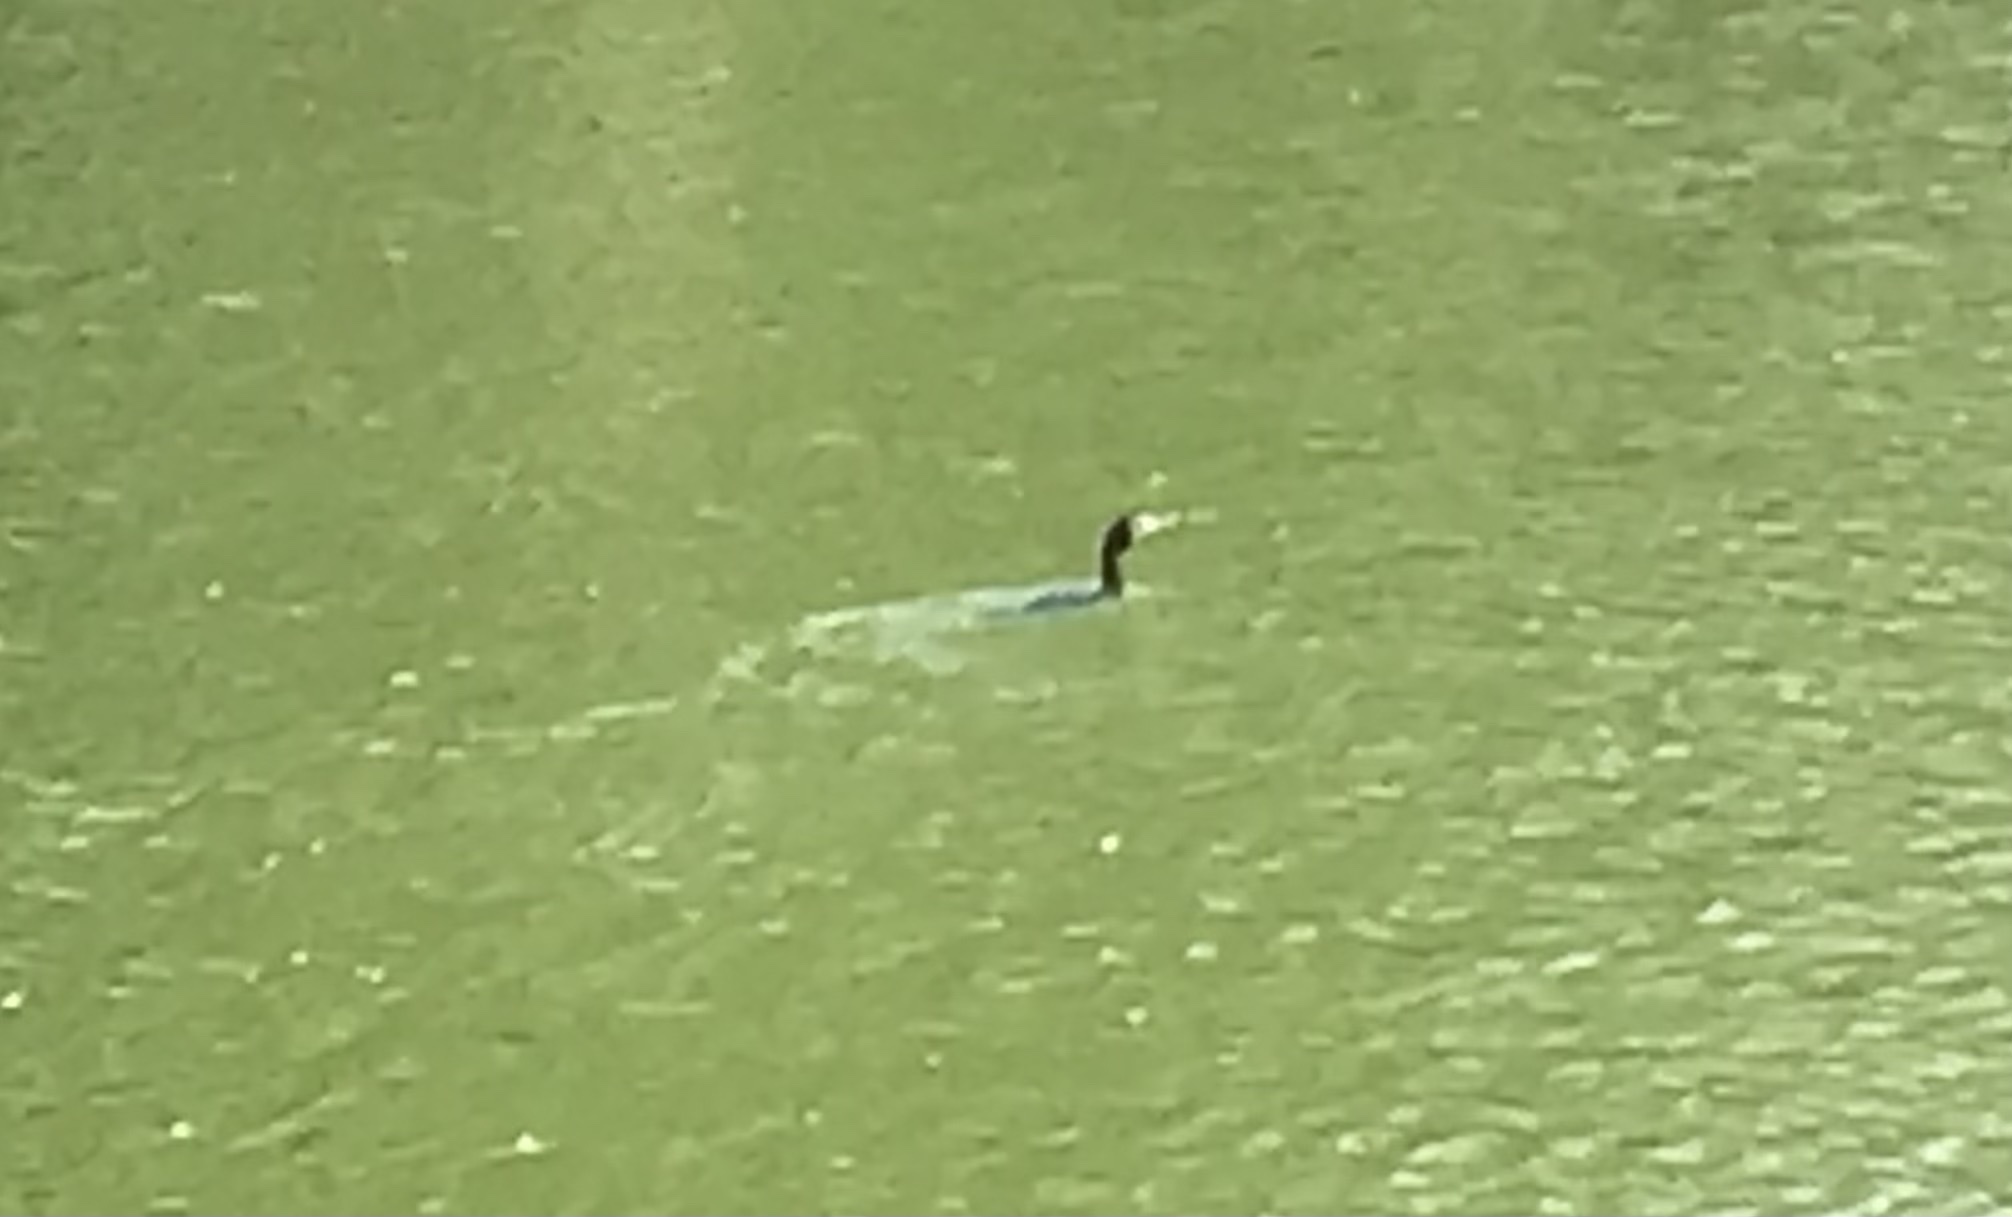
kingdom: Animalia
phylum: Chordata
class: Aves
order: Suliformes
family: Phalacrocoracidae
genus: Microcarbo
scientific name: Microcarbo niger
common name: Little cormorant
